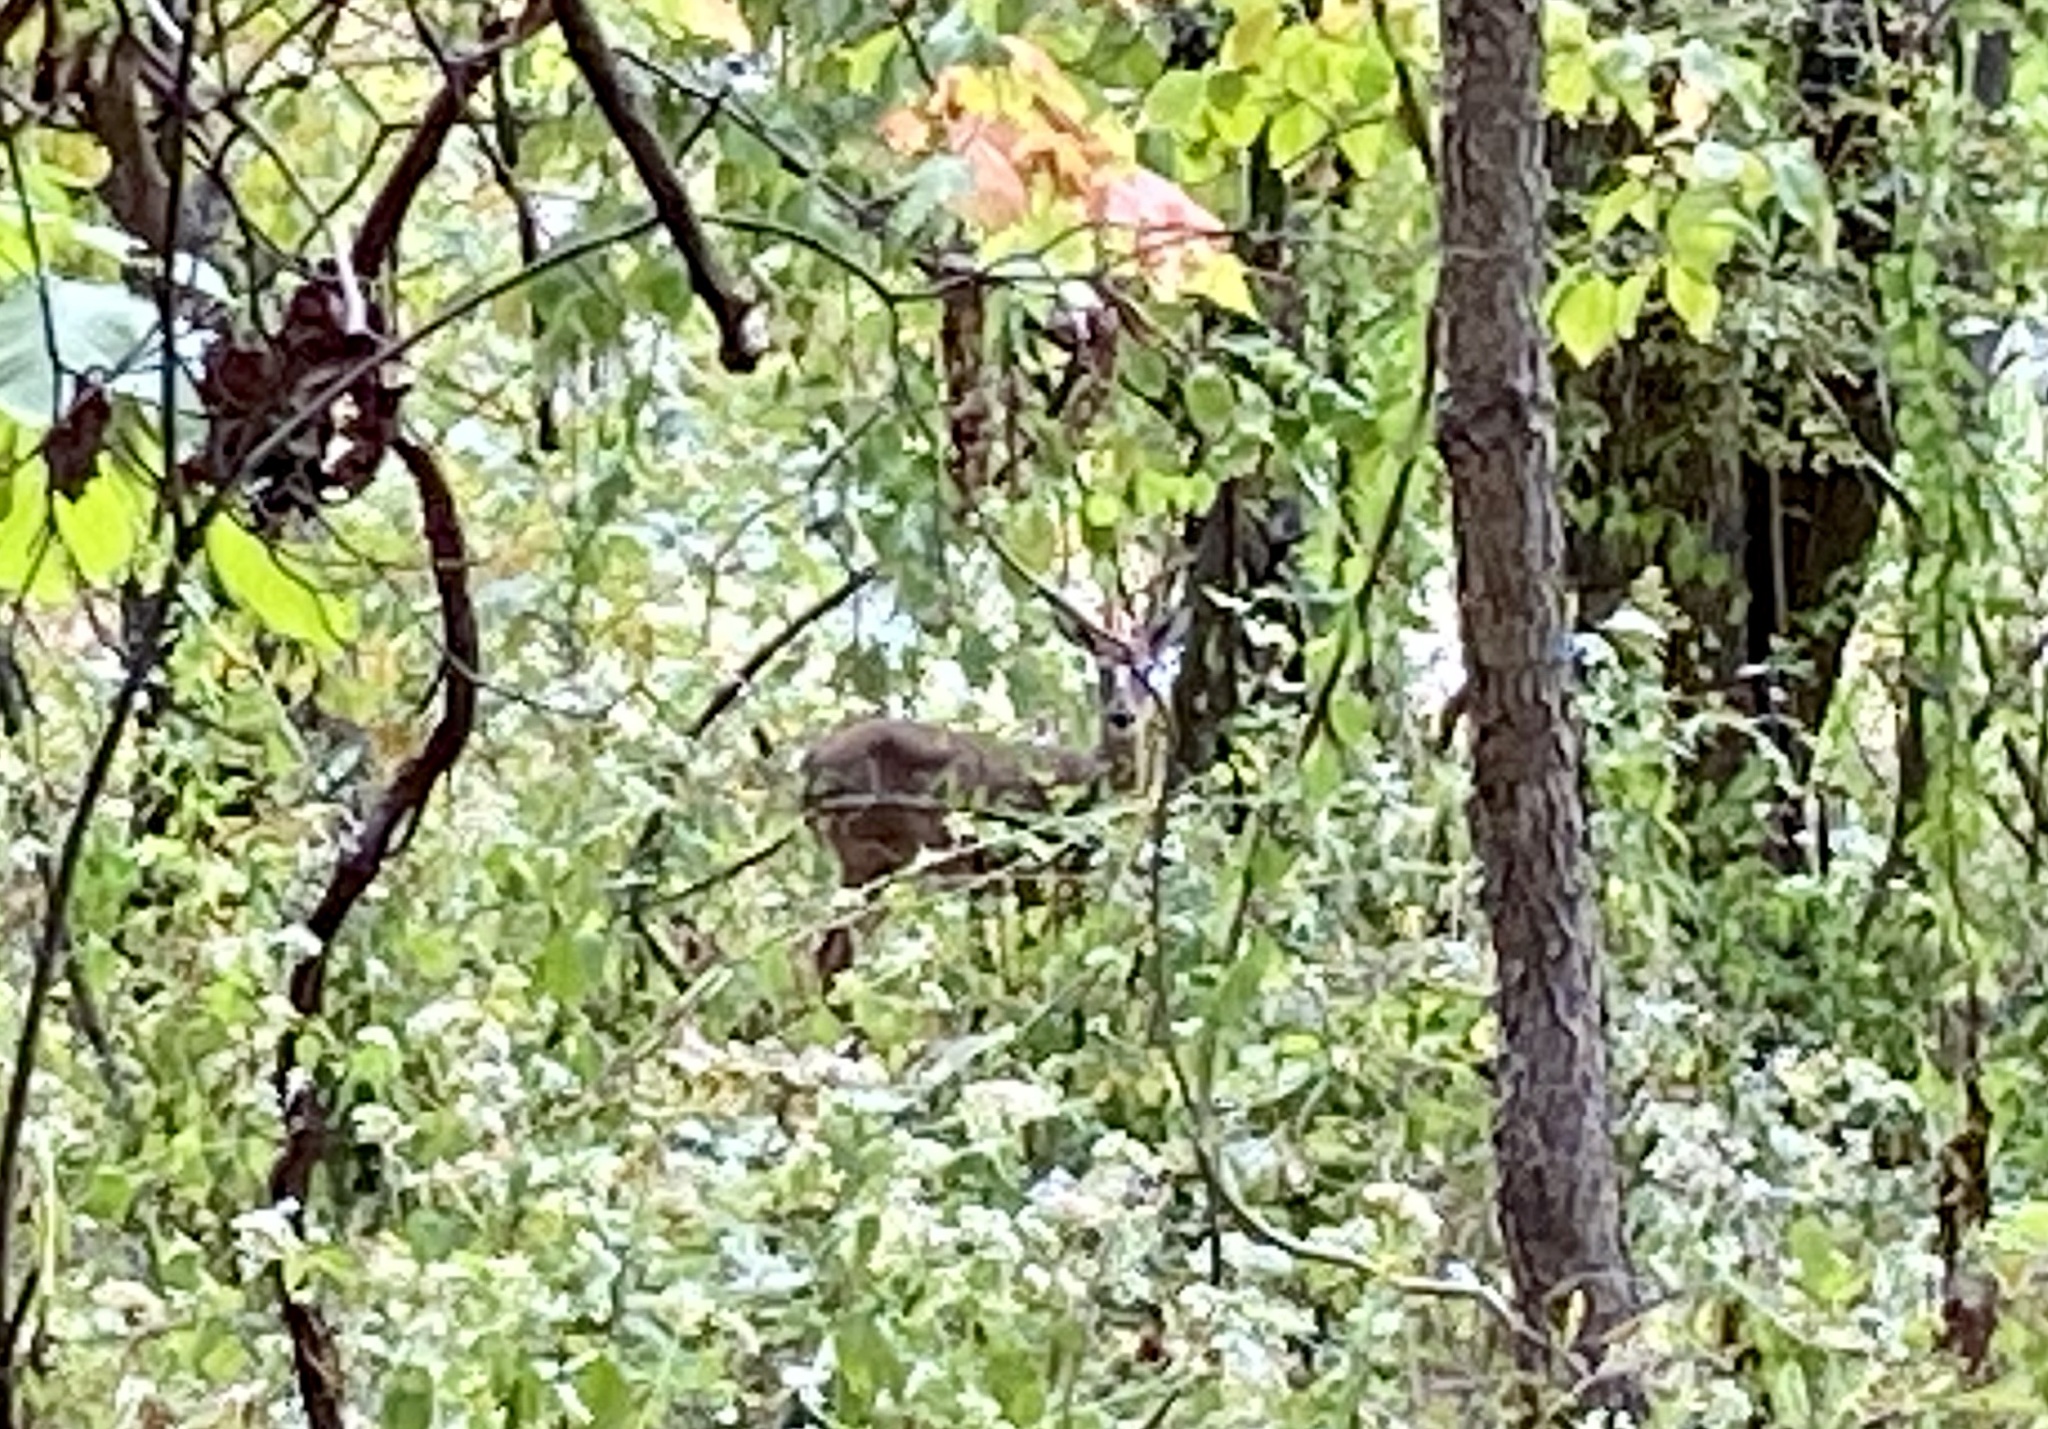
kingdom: Animalia
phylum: Chordata
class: Mammalia
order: Artiodactyla
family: Cervidae
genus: Odocoileus
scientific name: Odocoileus virginianus
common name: White-tailed deer
